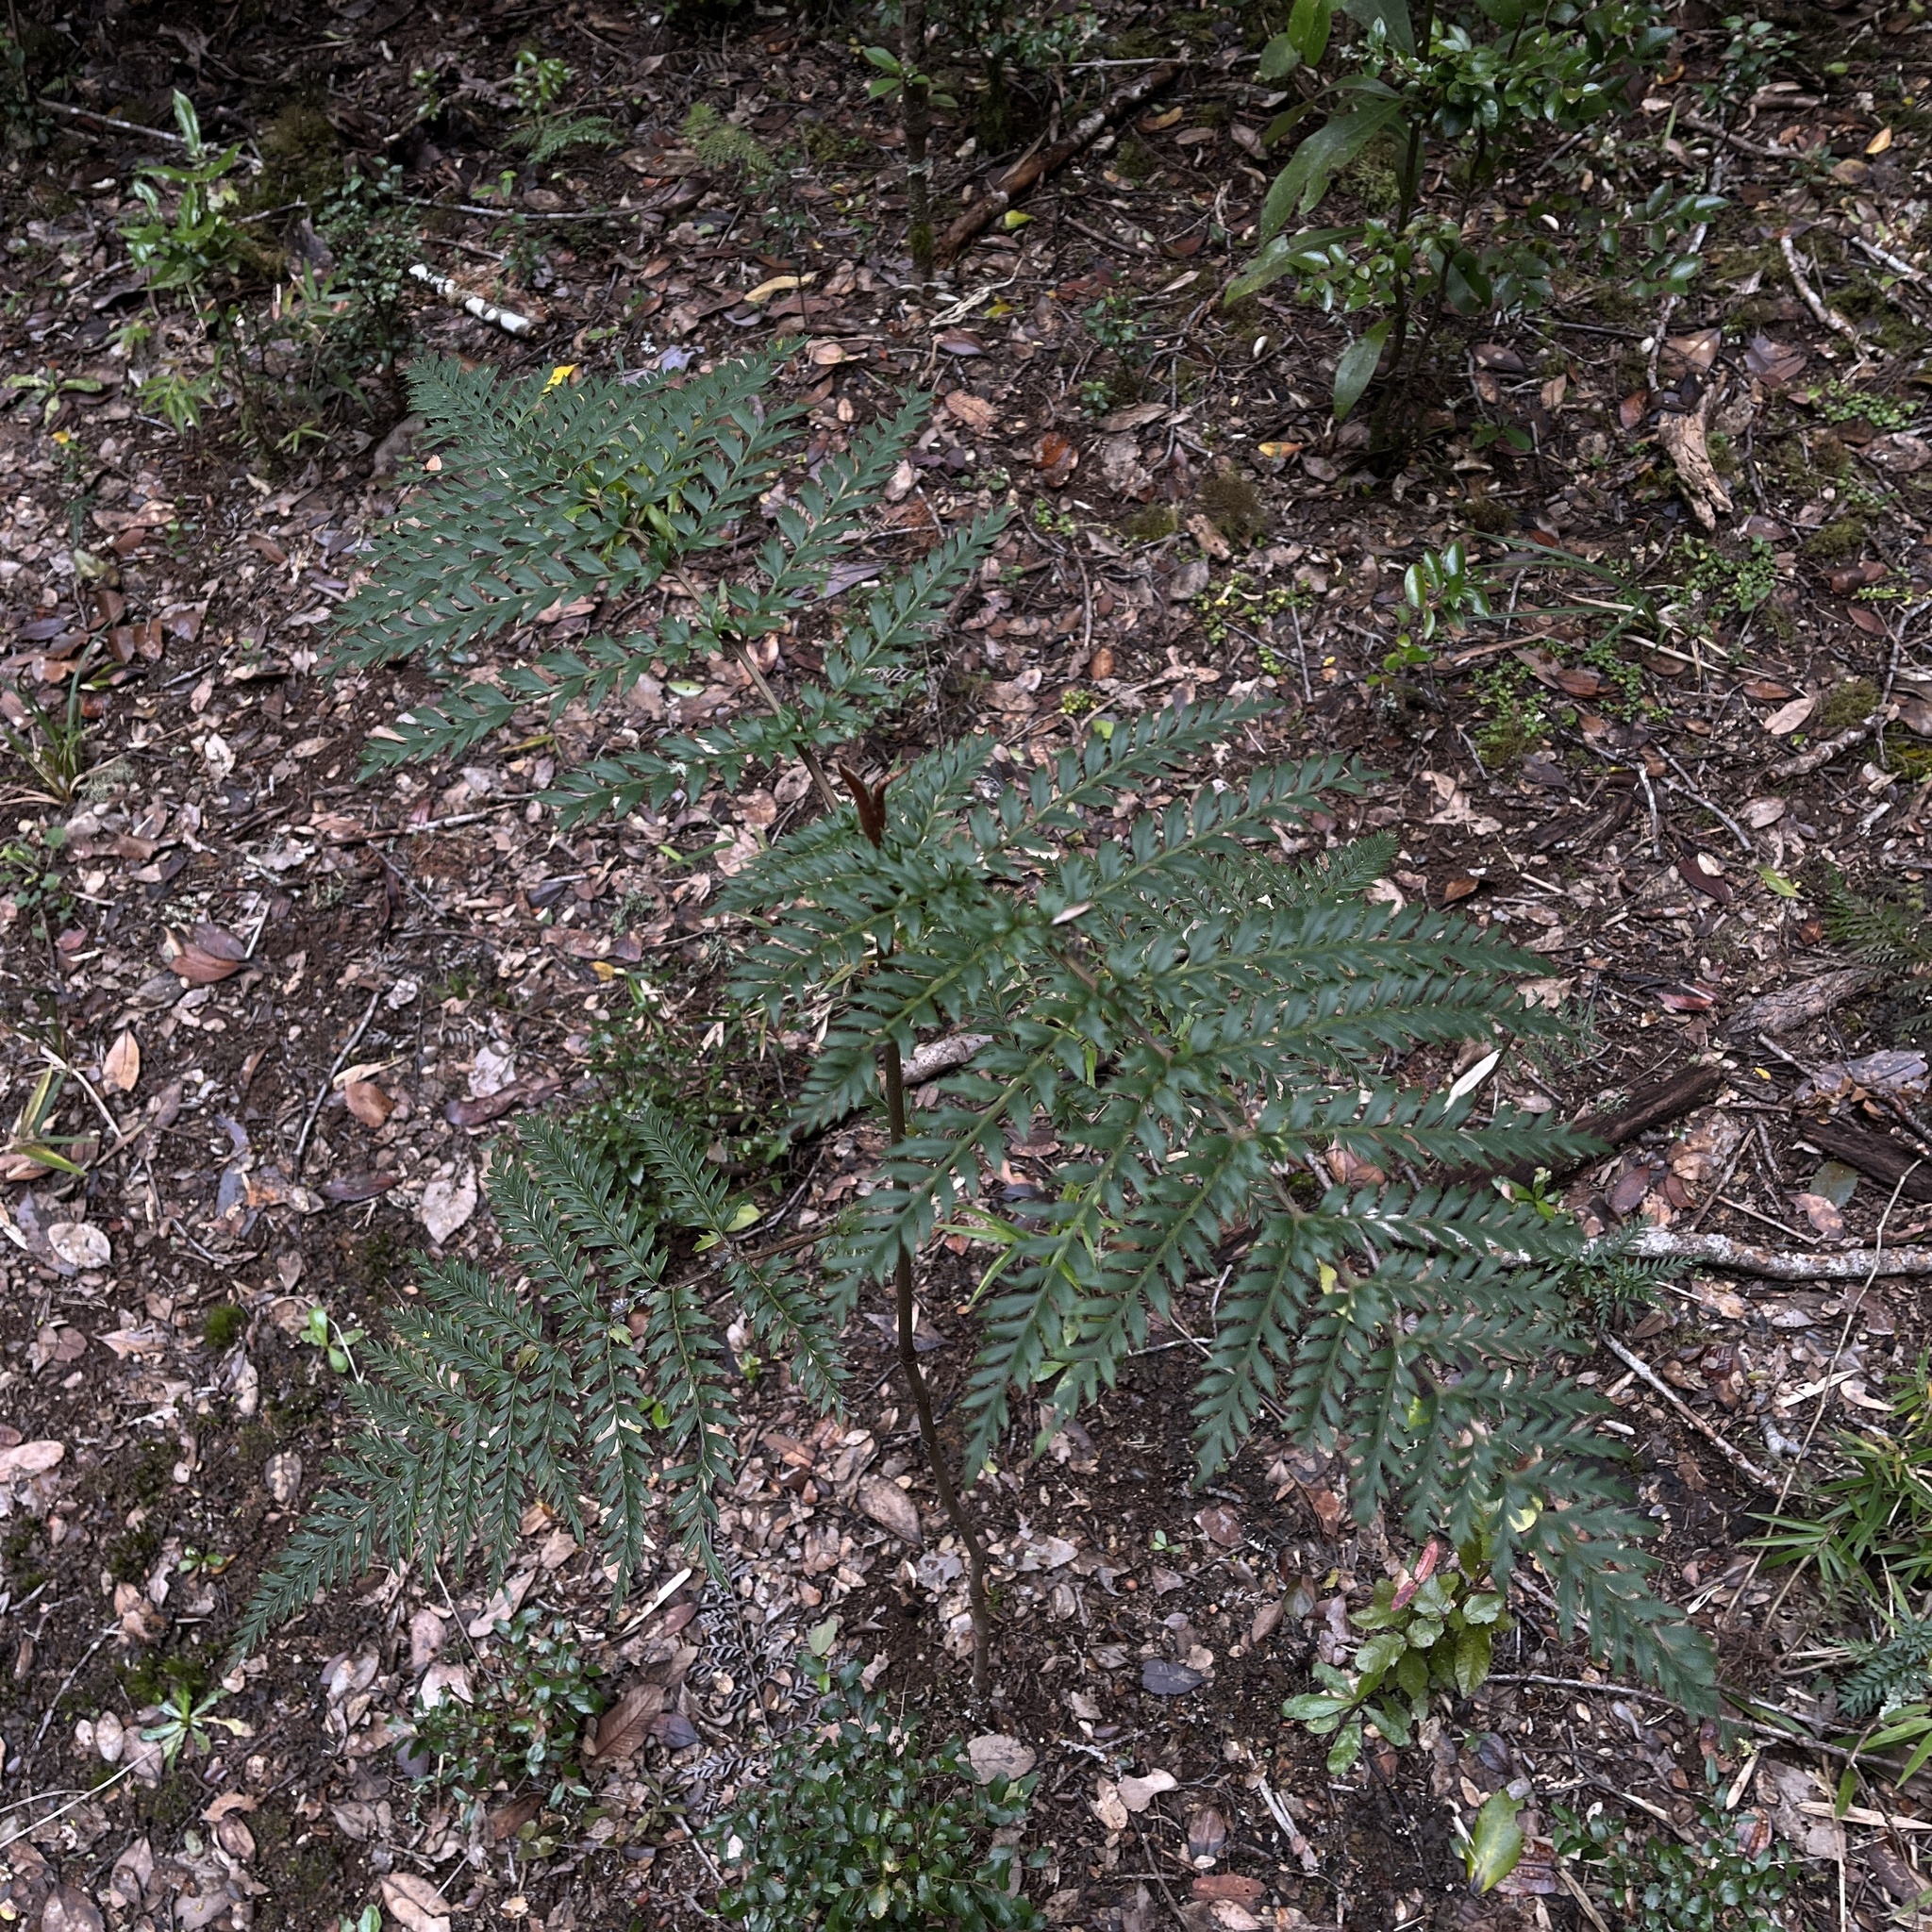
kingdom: Plantae
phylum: Tracheophyta
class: Magnoliopsida
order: Proteales
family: Proteaceae
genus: Lomatia
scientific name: Lomatia ferruginea
